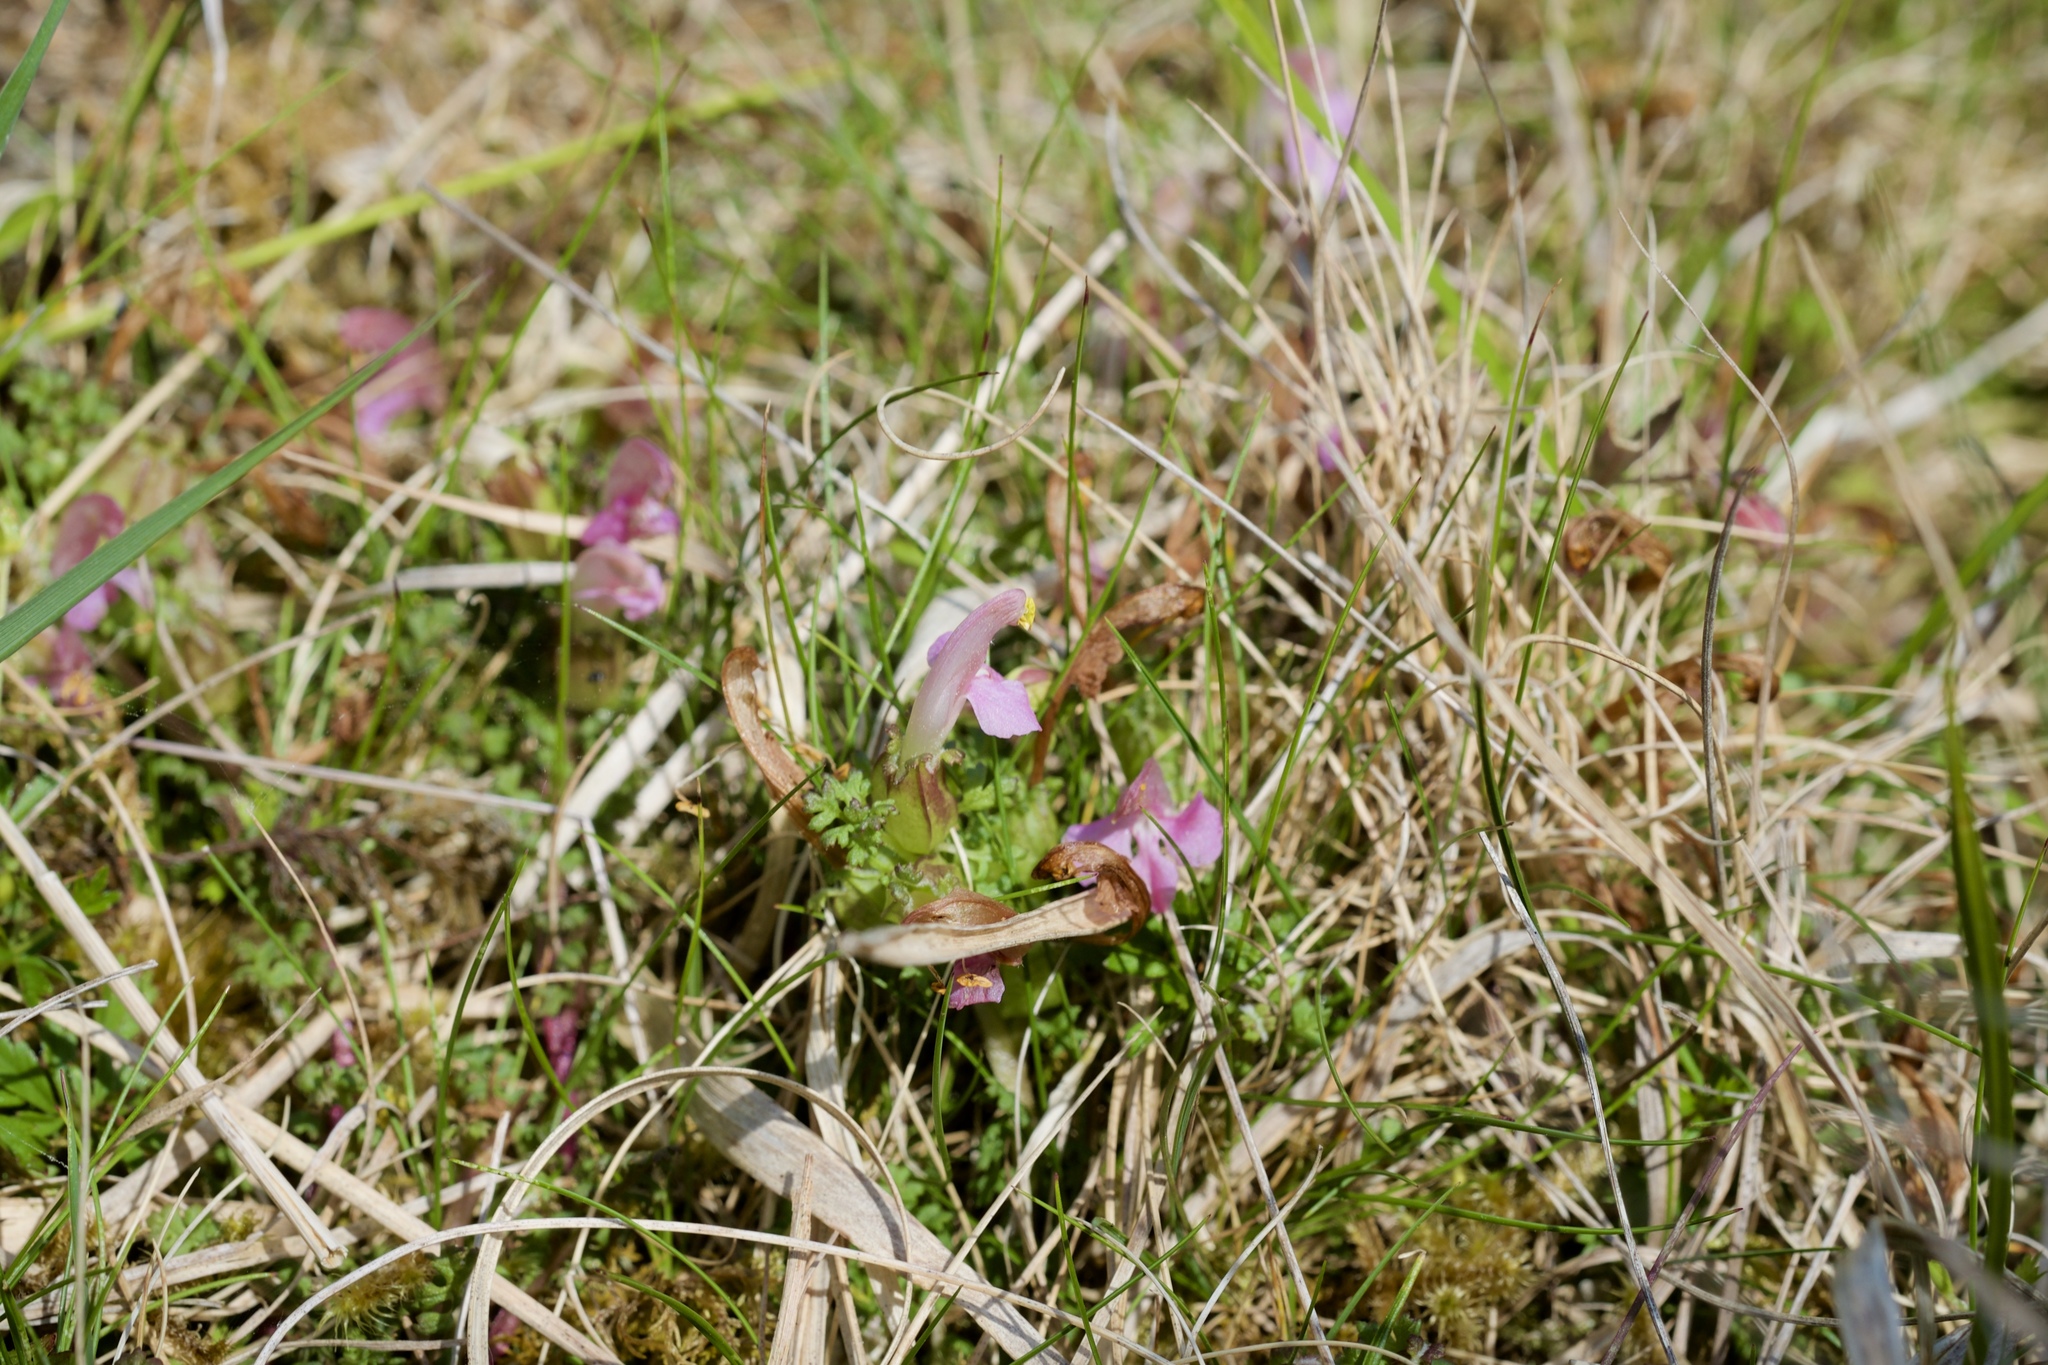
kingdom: Plantae
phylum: Tracheophyta
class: Magnoliopsida
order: Lamiales
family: Orobanchaceae
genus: Pedicularis
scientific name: Pedicularis sylvatica
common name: Lousewort
